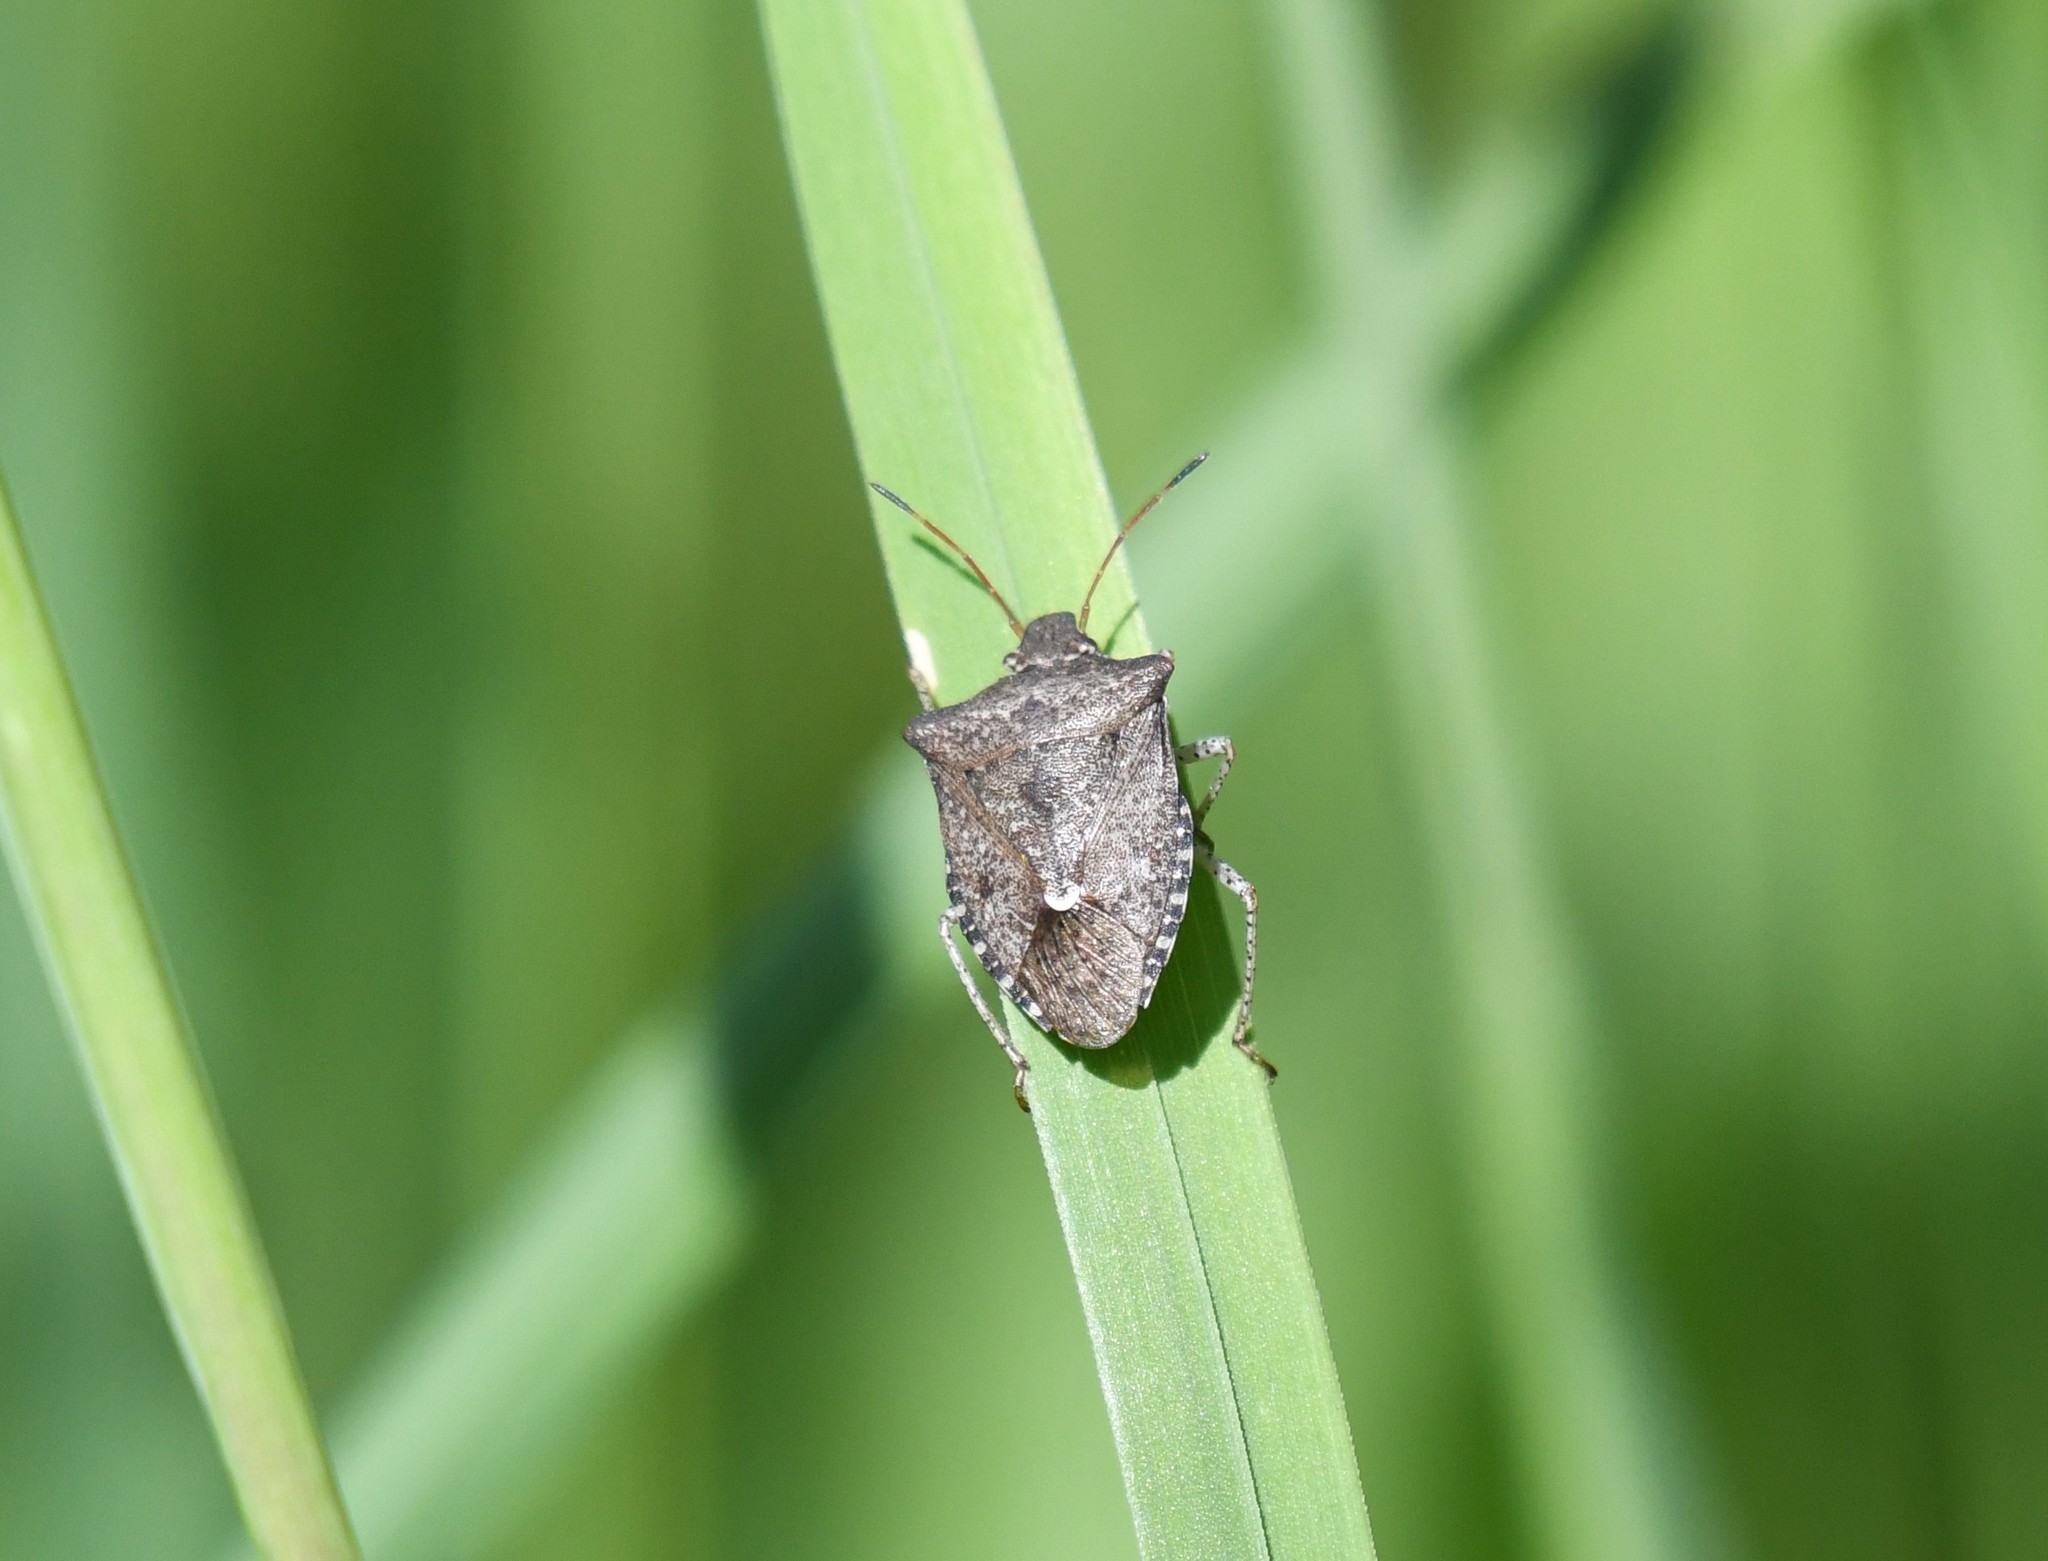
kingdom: Animalia
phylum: Arthropoda
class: Insecta
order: Hemiptera
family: Pentatomidae
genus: Euschistus
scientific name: Euschistus tristigmus
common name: Dusky stink bug
